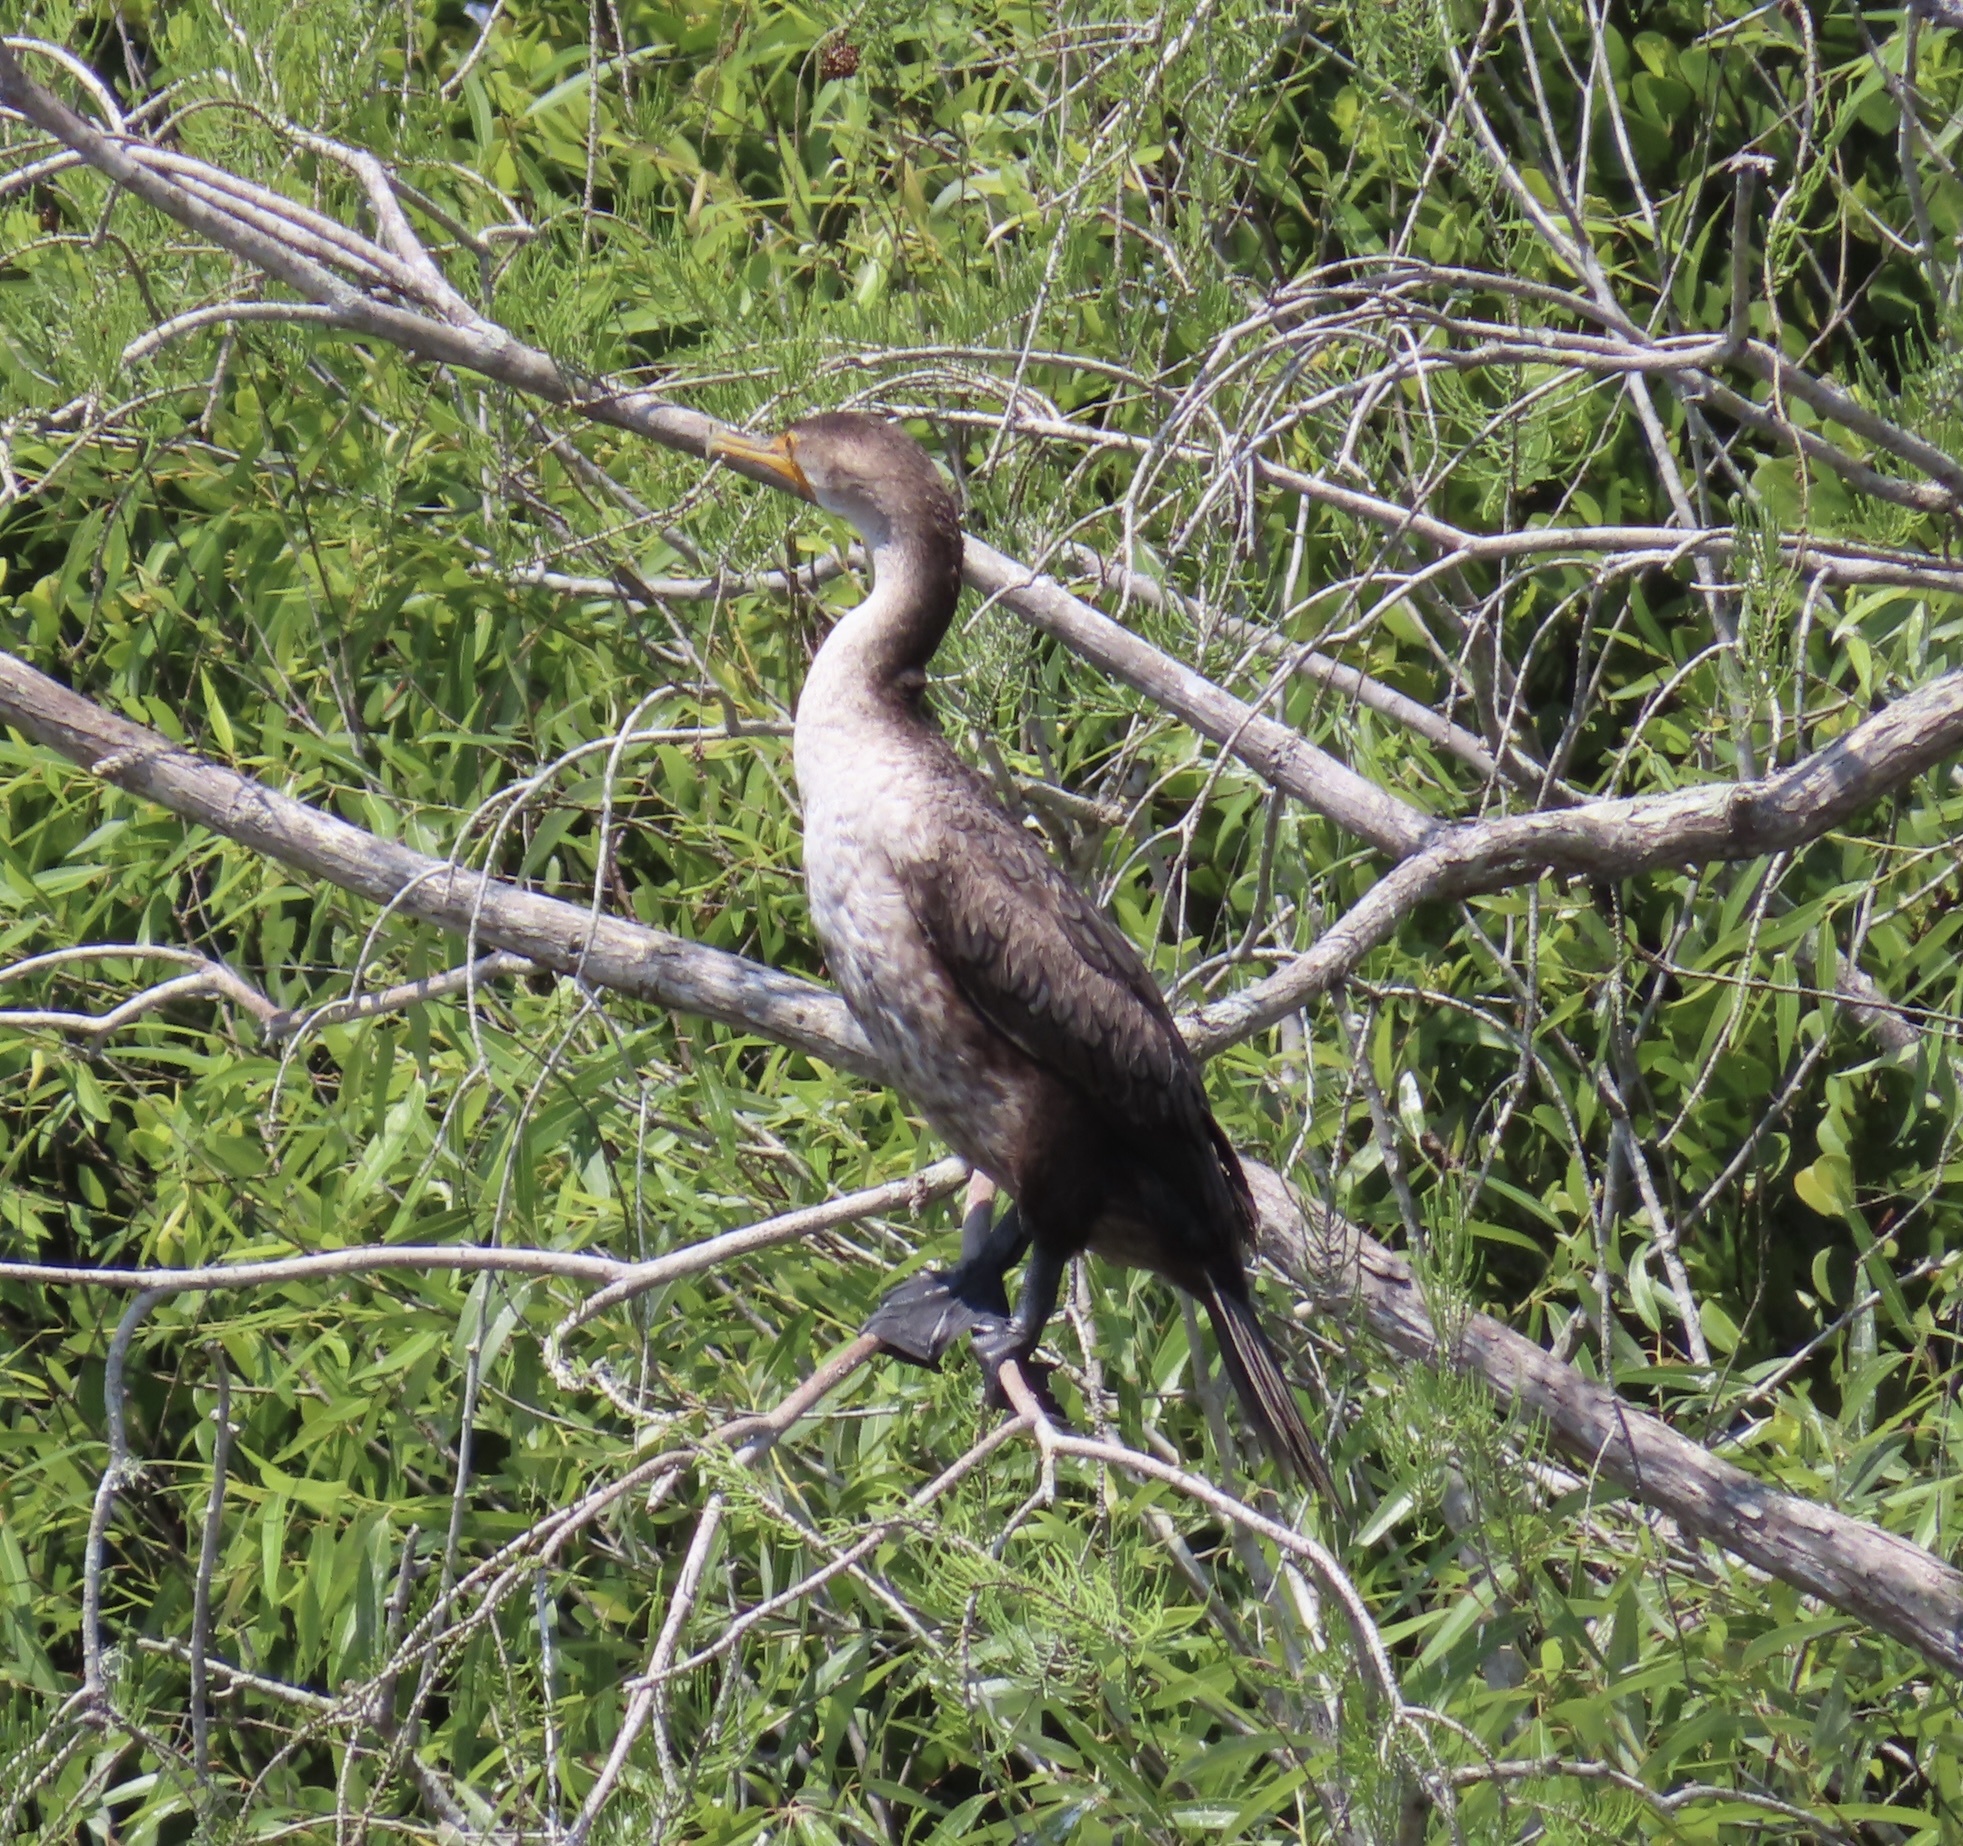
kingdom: Animalia
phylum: Chordata
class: Aves
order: Suliformes
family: Phalacrocoracidae
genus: Phalacrocorax
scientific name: Phalacrocorax auritus
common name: Double-crested cormorant
